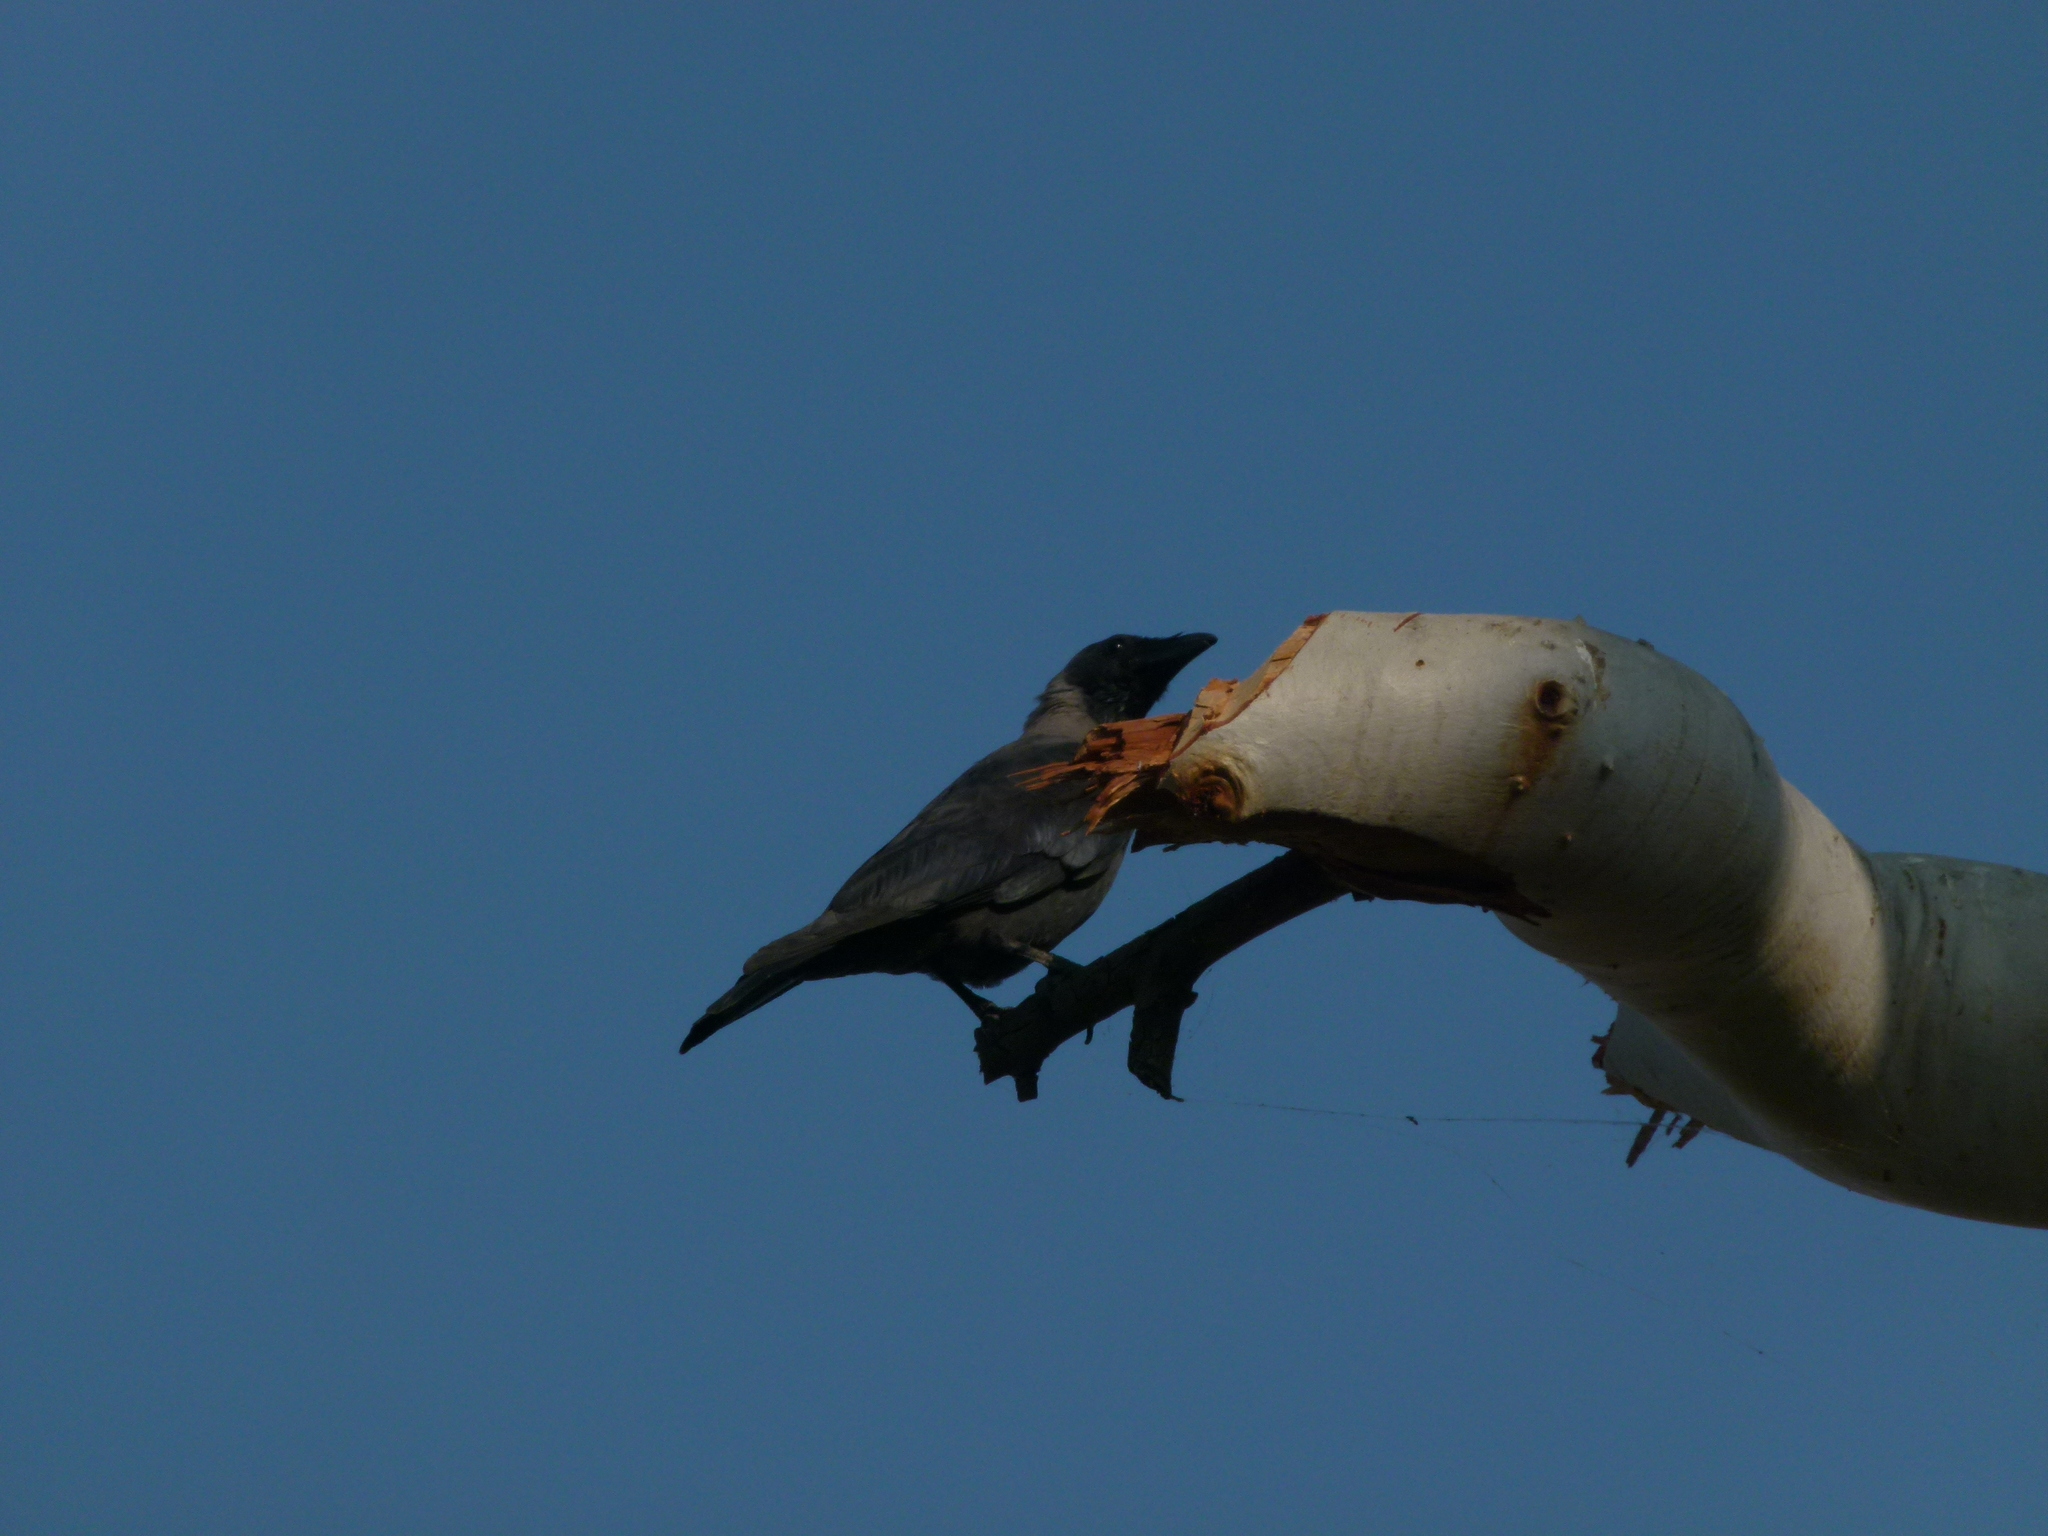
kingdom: Animalia
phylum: Chordata
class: Aves
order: Passeriformes
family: Corvidae
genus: Corvus
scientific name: Corvus splendens
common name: House crow
